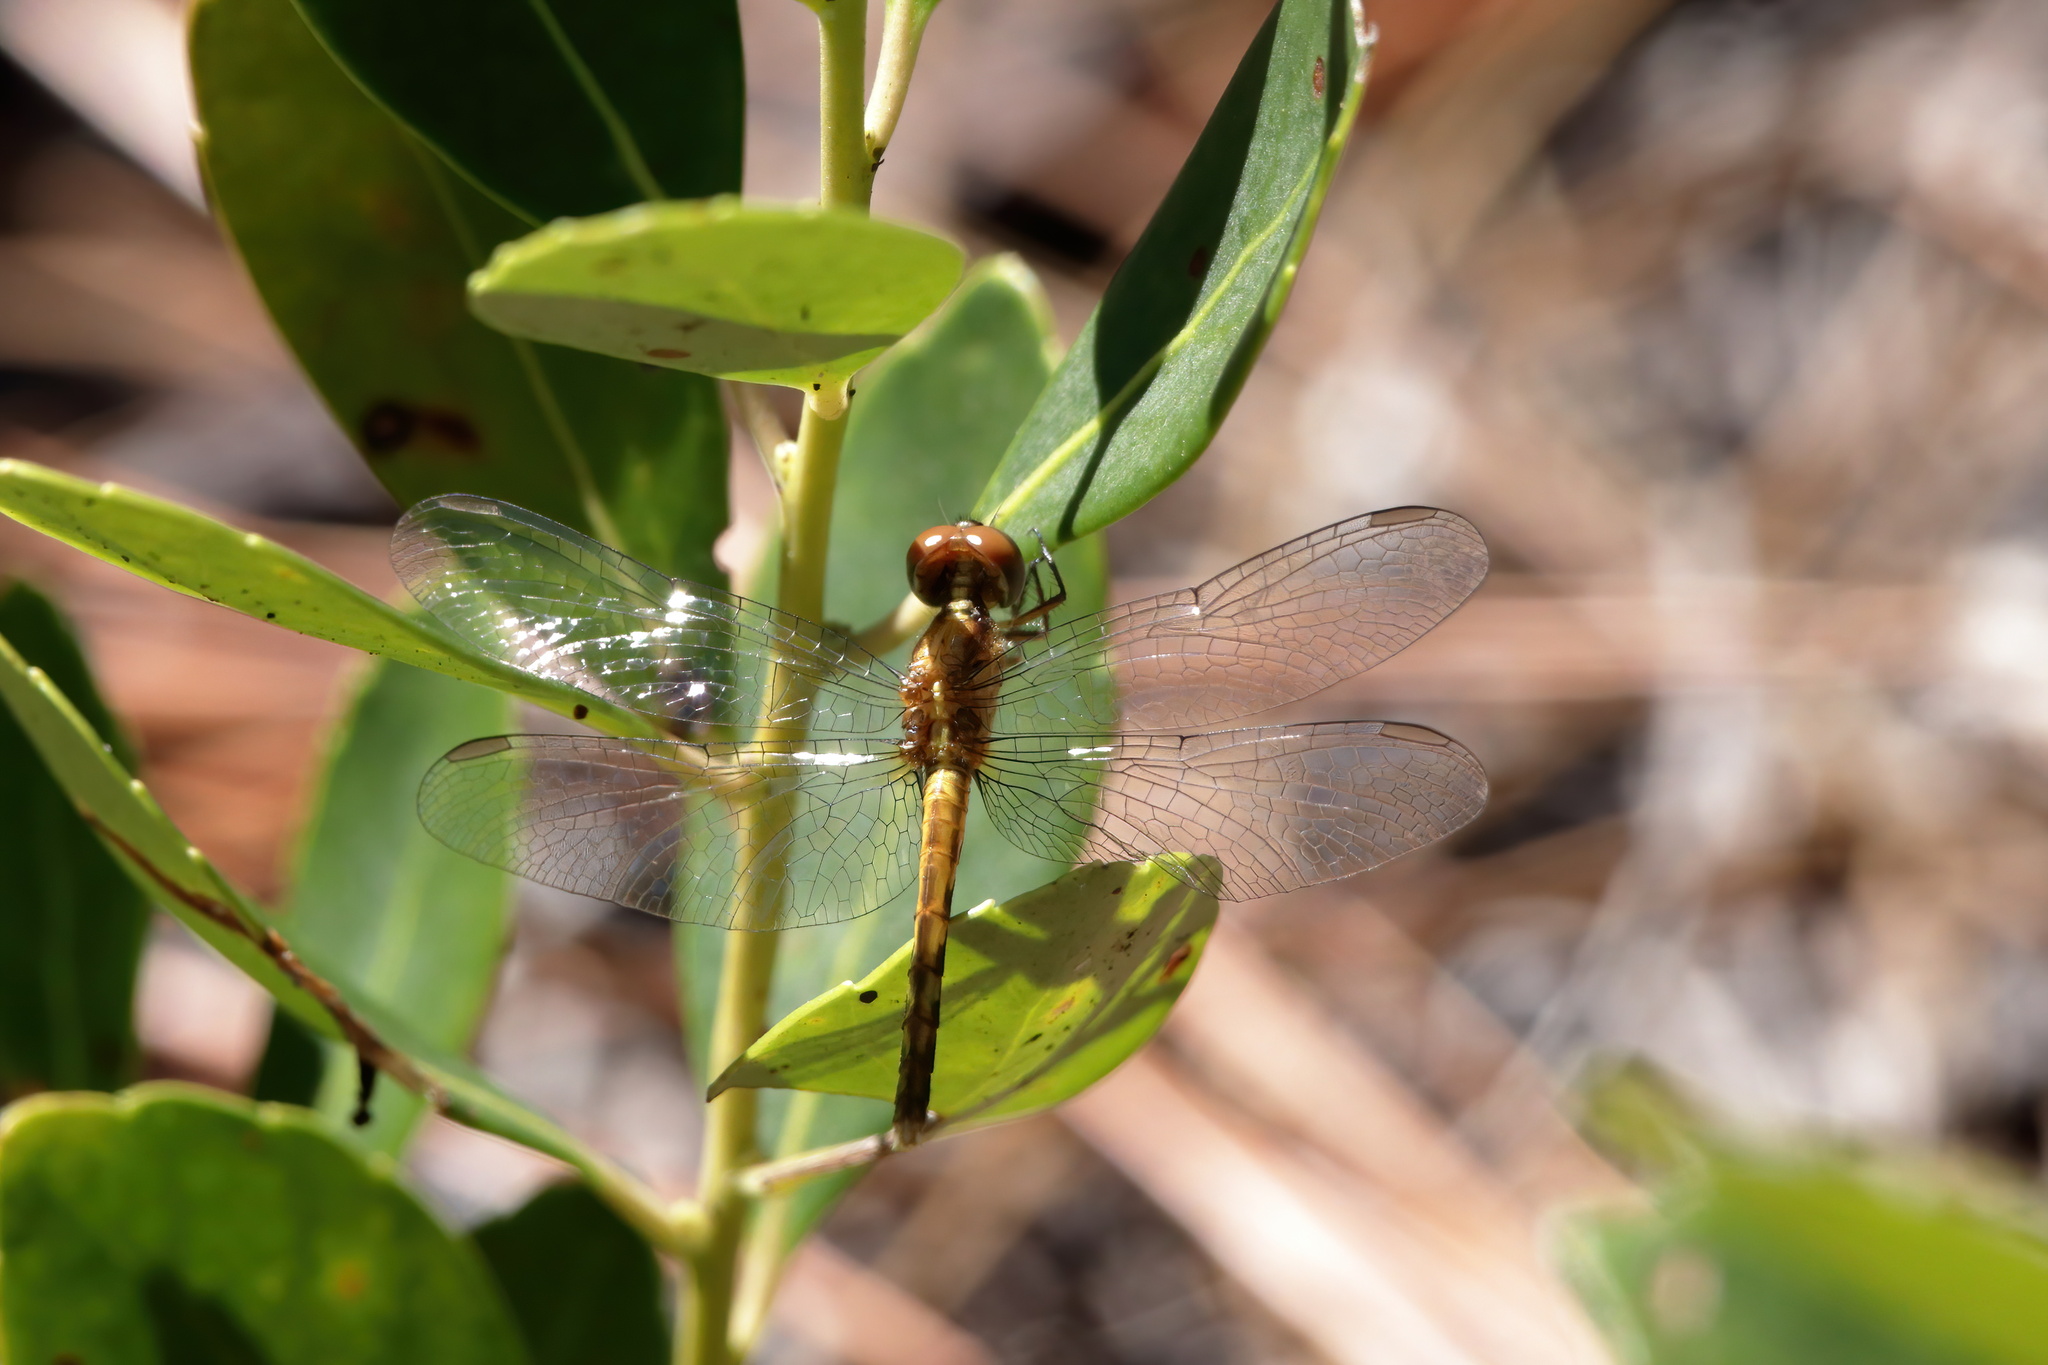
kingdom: Animalia
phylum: Arthropoda
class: Insecta
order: Odonata
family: Libellulidae
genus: Erythrodiplax
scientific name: Erythrodiplax minuscula
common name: Little blue dragonlet
